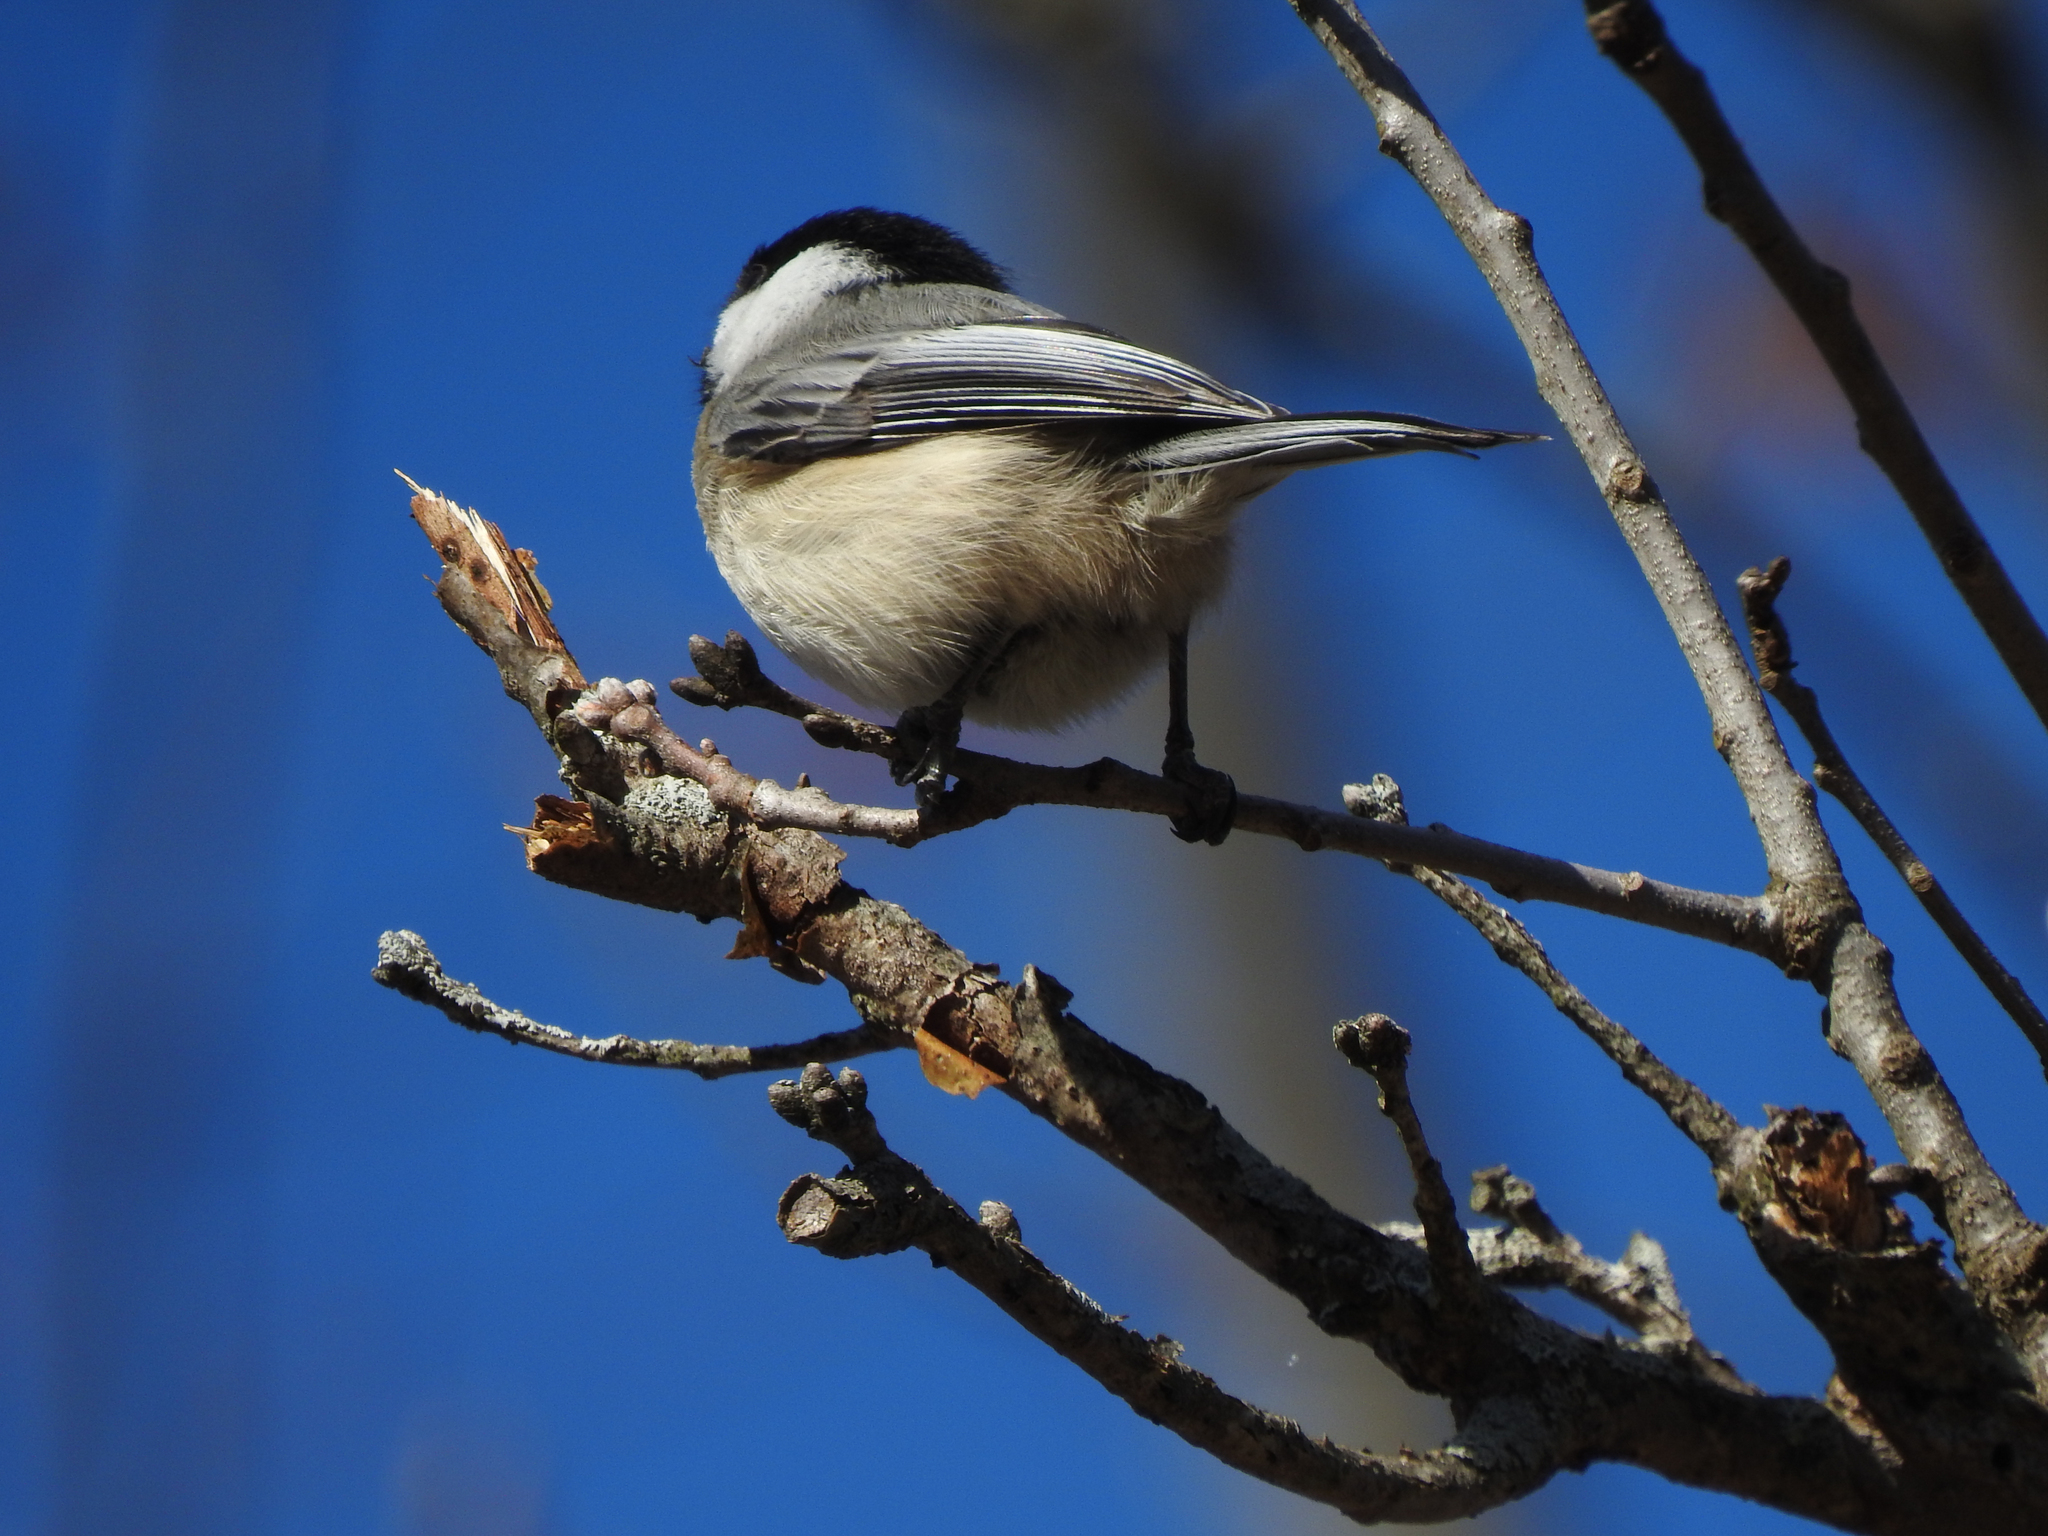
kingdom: Animalia
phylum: Chordata
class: Aves
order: Passeriformes
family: Paridae
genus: Poecile
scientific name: Poecile atricapillus
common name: Black-capped chickadee
